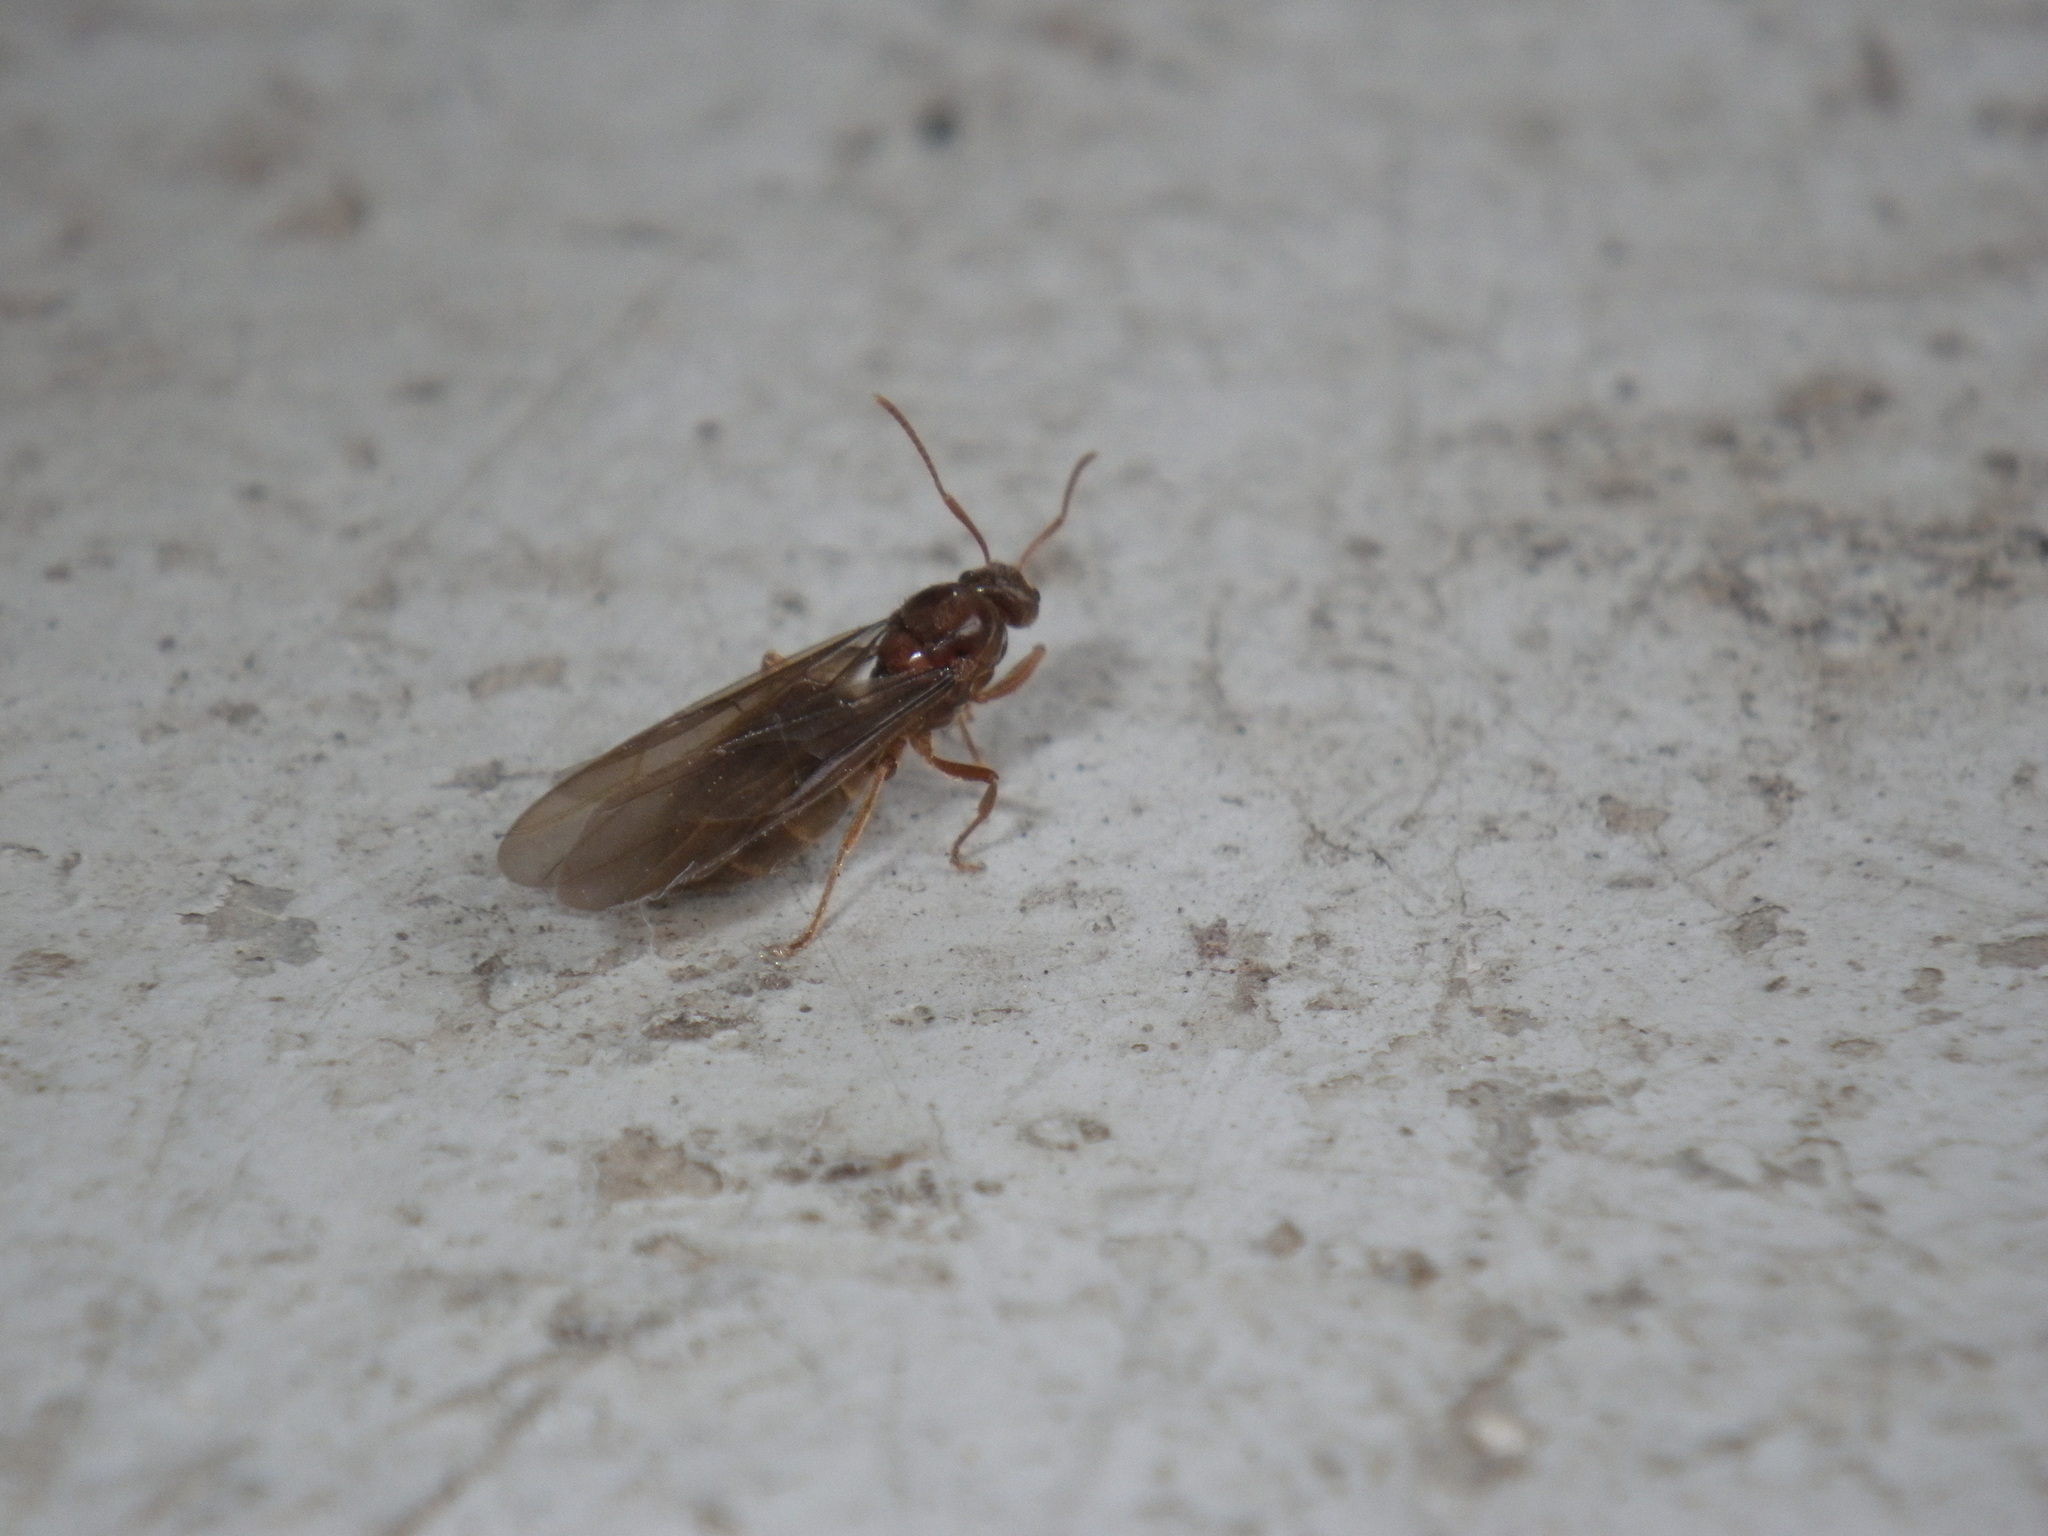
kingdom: Animalia
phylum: Arthropoda
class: Insecta
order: Hymenoptera
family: Formicidae
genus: Prenolepis
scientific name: Prenolepis imparis
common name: Small honey ant
